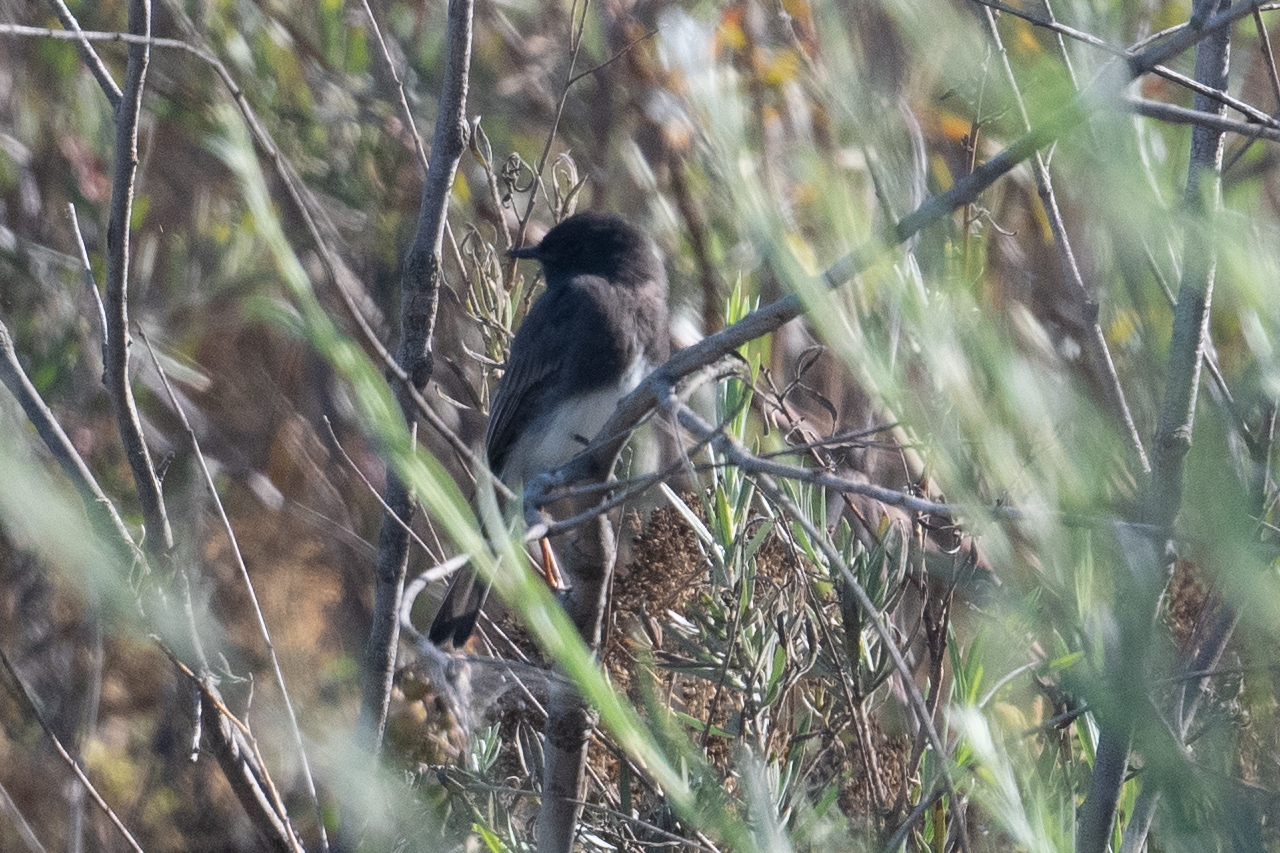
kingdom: Animalia
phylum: Chordata
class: Aves
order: Passeriformes
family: Tyrannidae
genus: Sayornis
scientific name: Sayornis nigricans
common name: Black phoebe
